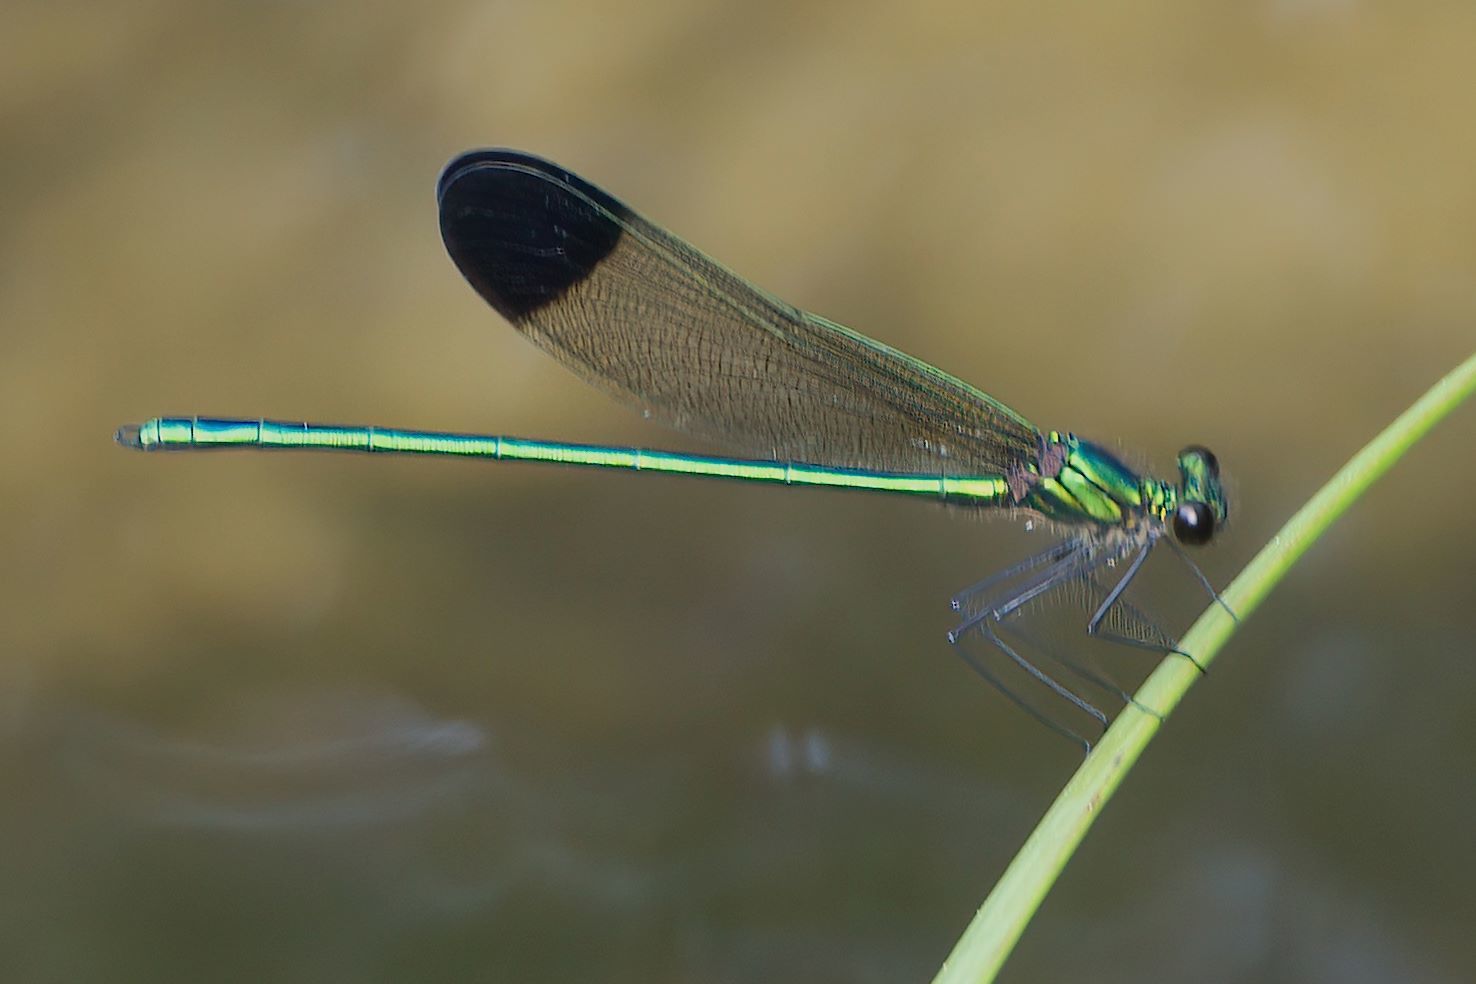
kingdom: Animalia
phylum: Arthropoda
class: Insecta
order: Odonata
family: Calopterygidae
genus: Calopteryx
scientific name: Calopteryx dimidiata
